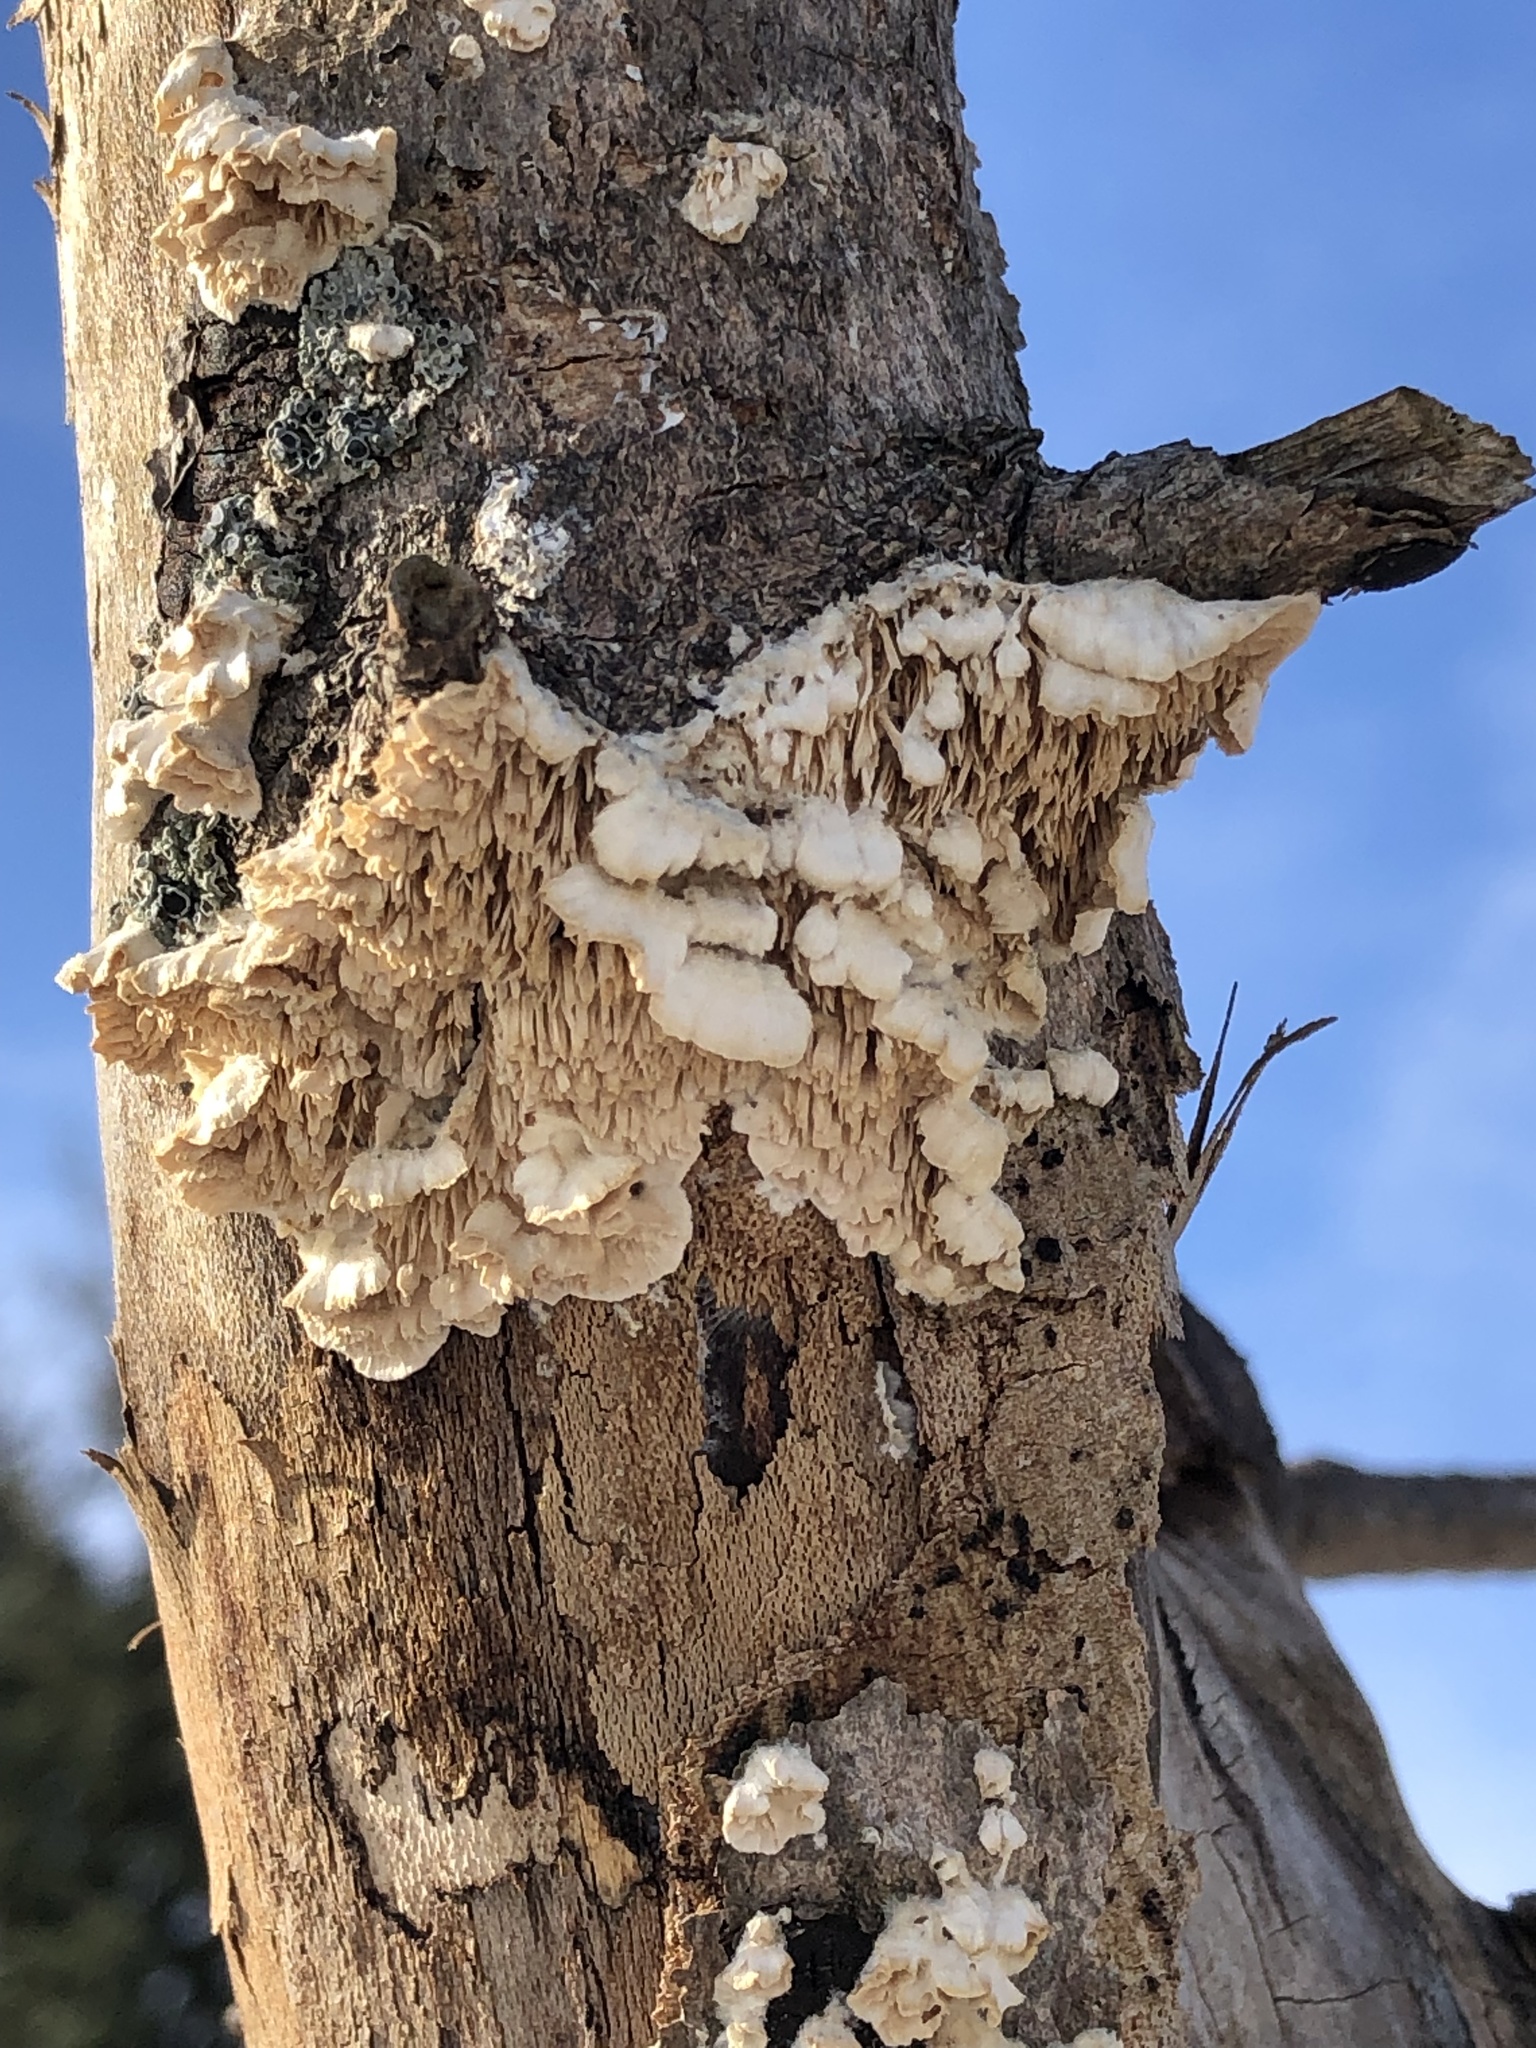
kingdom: Fungi
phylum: Basidiomycota
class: Agaricomycetes
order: Polyporales
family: Irpicaceae
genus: Irpex
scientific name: Irpex lacteus
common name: Milk-white toothed polypore
